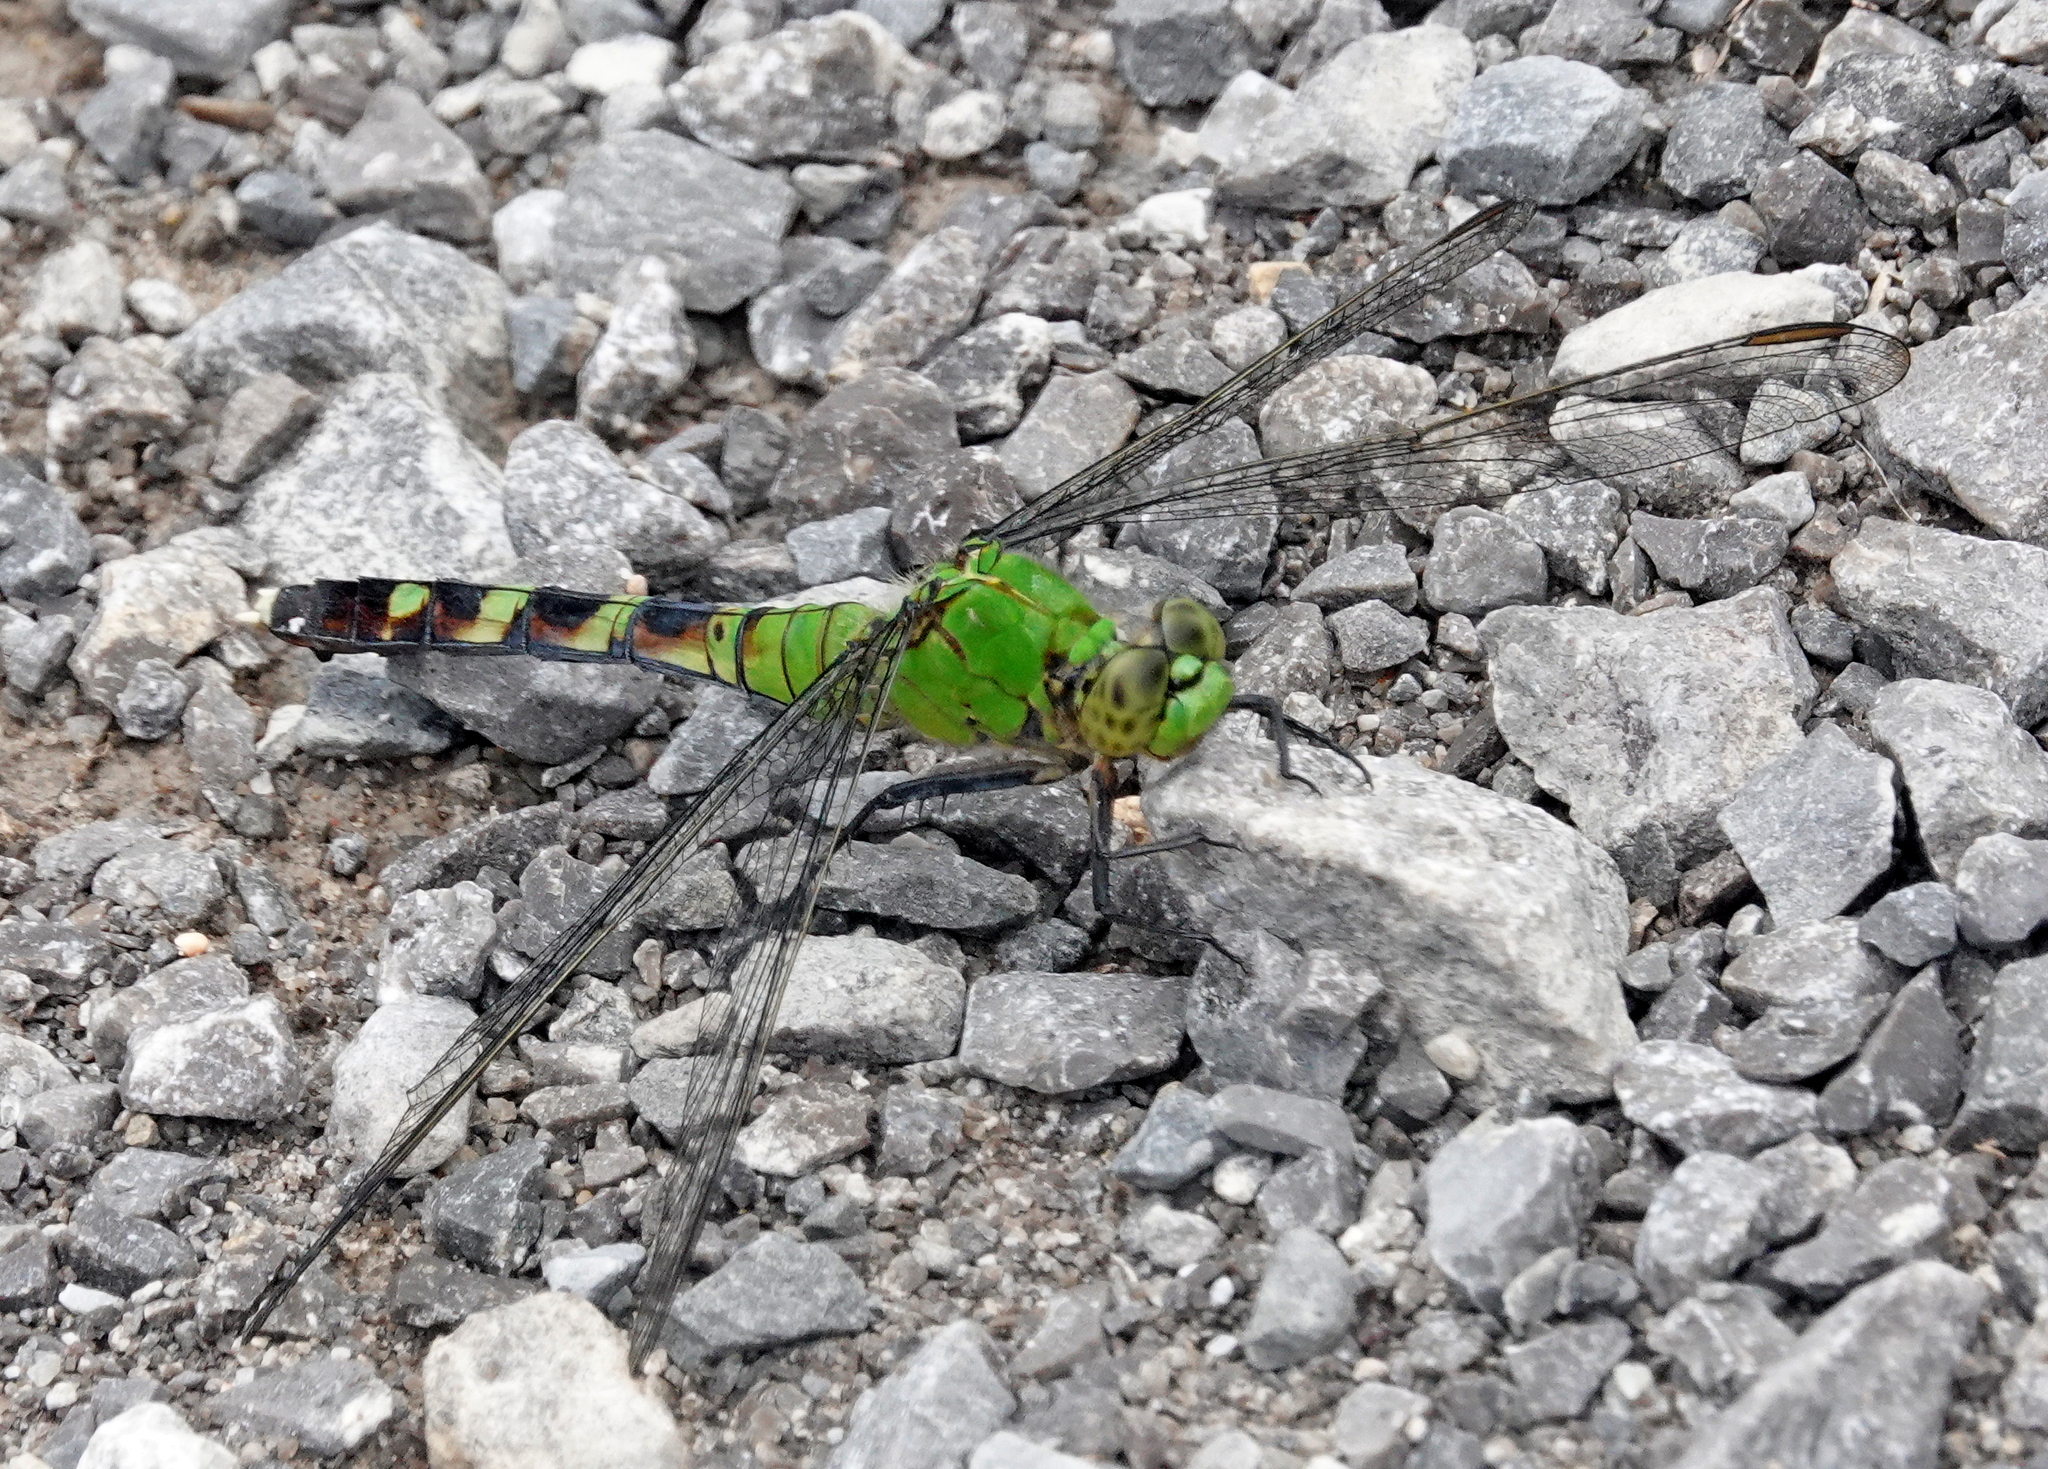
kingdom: Animalia
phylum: Arthropoda
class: Insecta
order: Odonata
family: Libellulidae
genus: Erythemis
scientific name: Erythemis simplicicollis
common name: Eastern pondhawk
